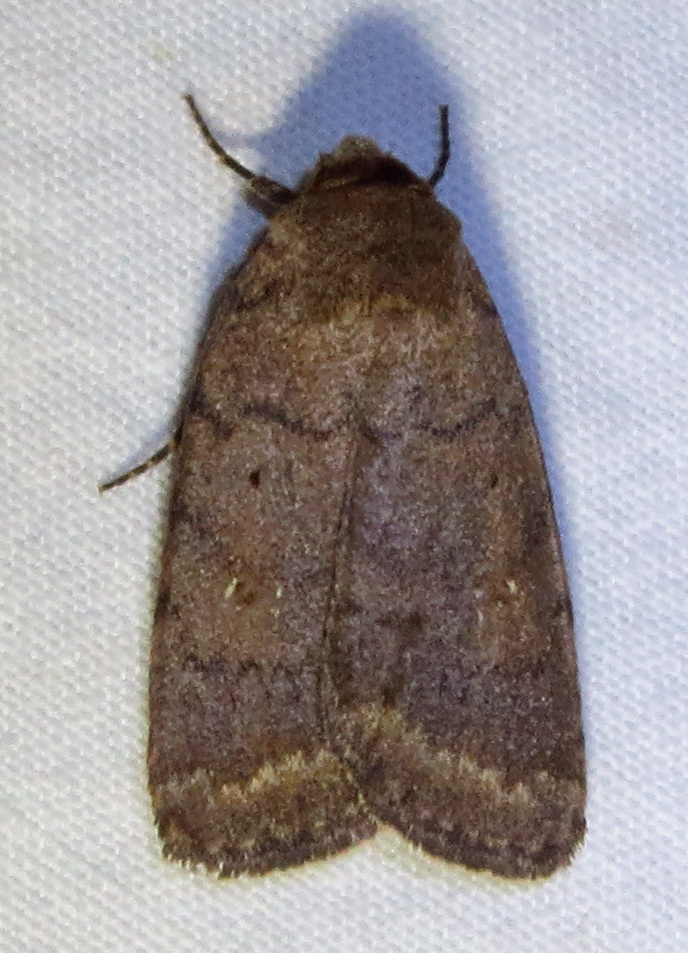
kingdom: Animalia
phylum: Arthropoda
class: Insecta
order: Lepidoptera
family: Noctuidae
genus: Athetis
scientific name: Athetis tarda
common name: Slowpoke moth
